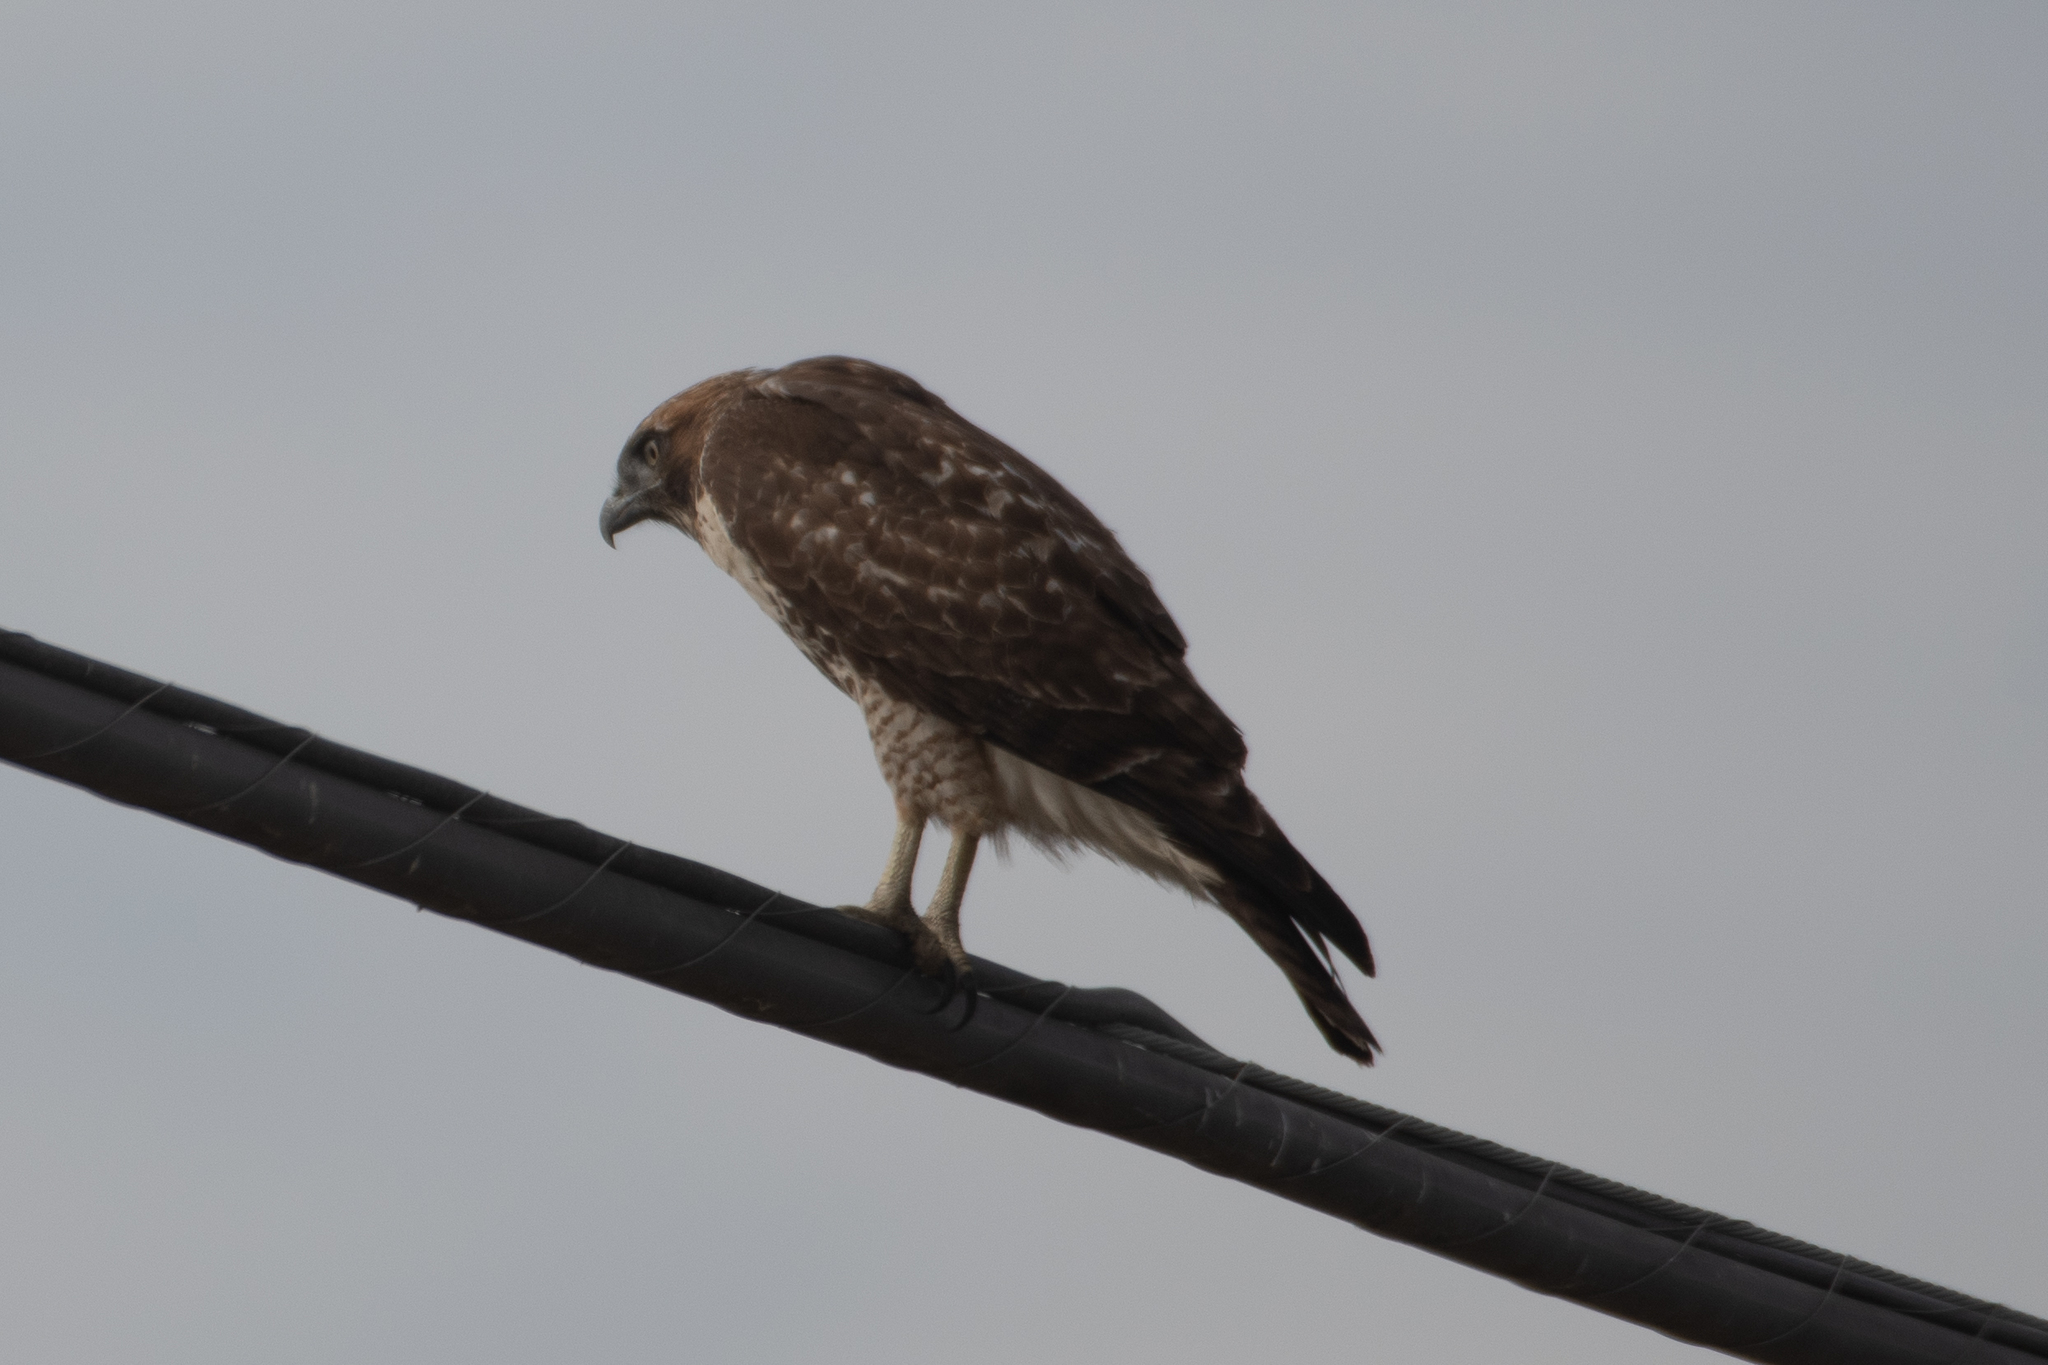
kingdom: Animalia
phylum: Chordata
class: Aves
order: Accipitriformes
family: Accipitridae
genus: Buteo
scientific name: Buteo jamaicensis
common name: Red-tailed hawk
